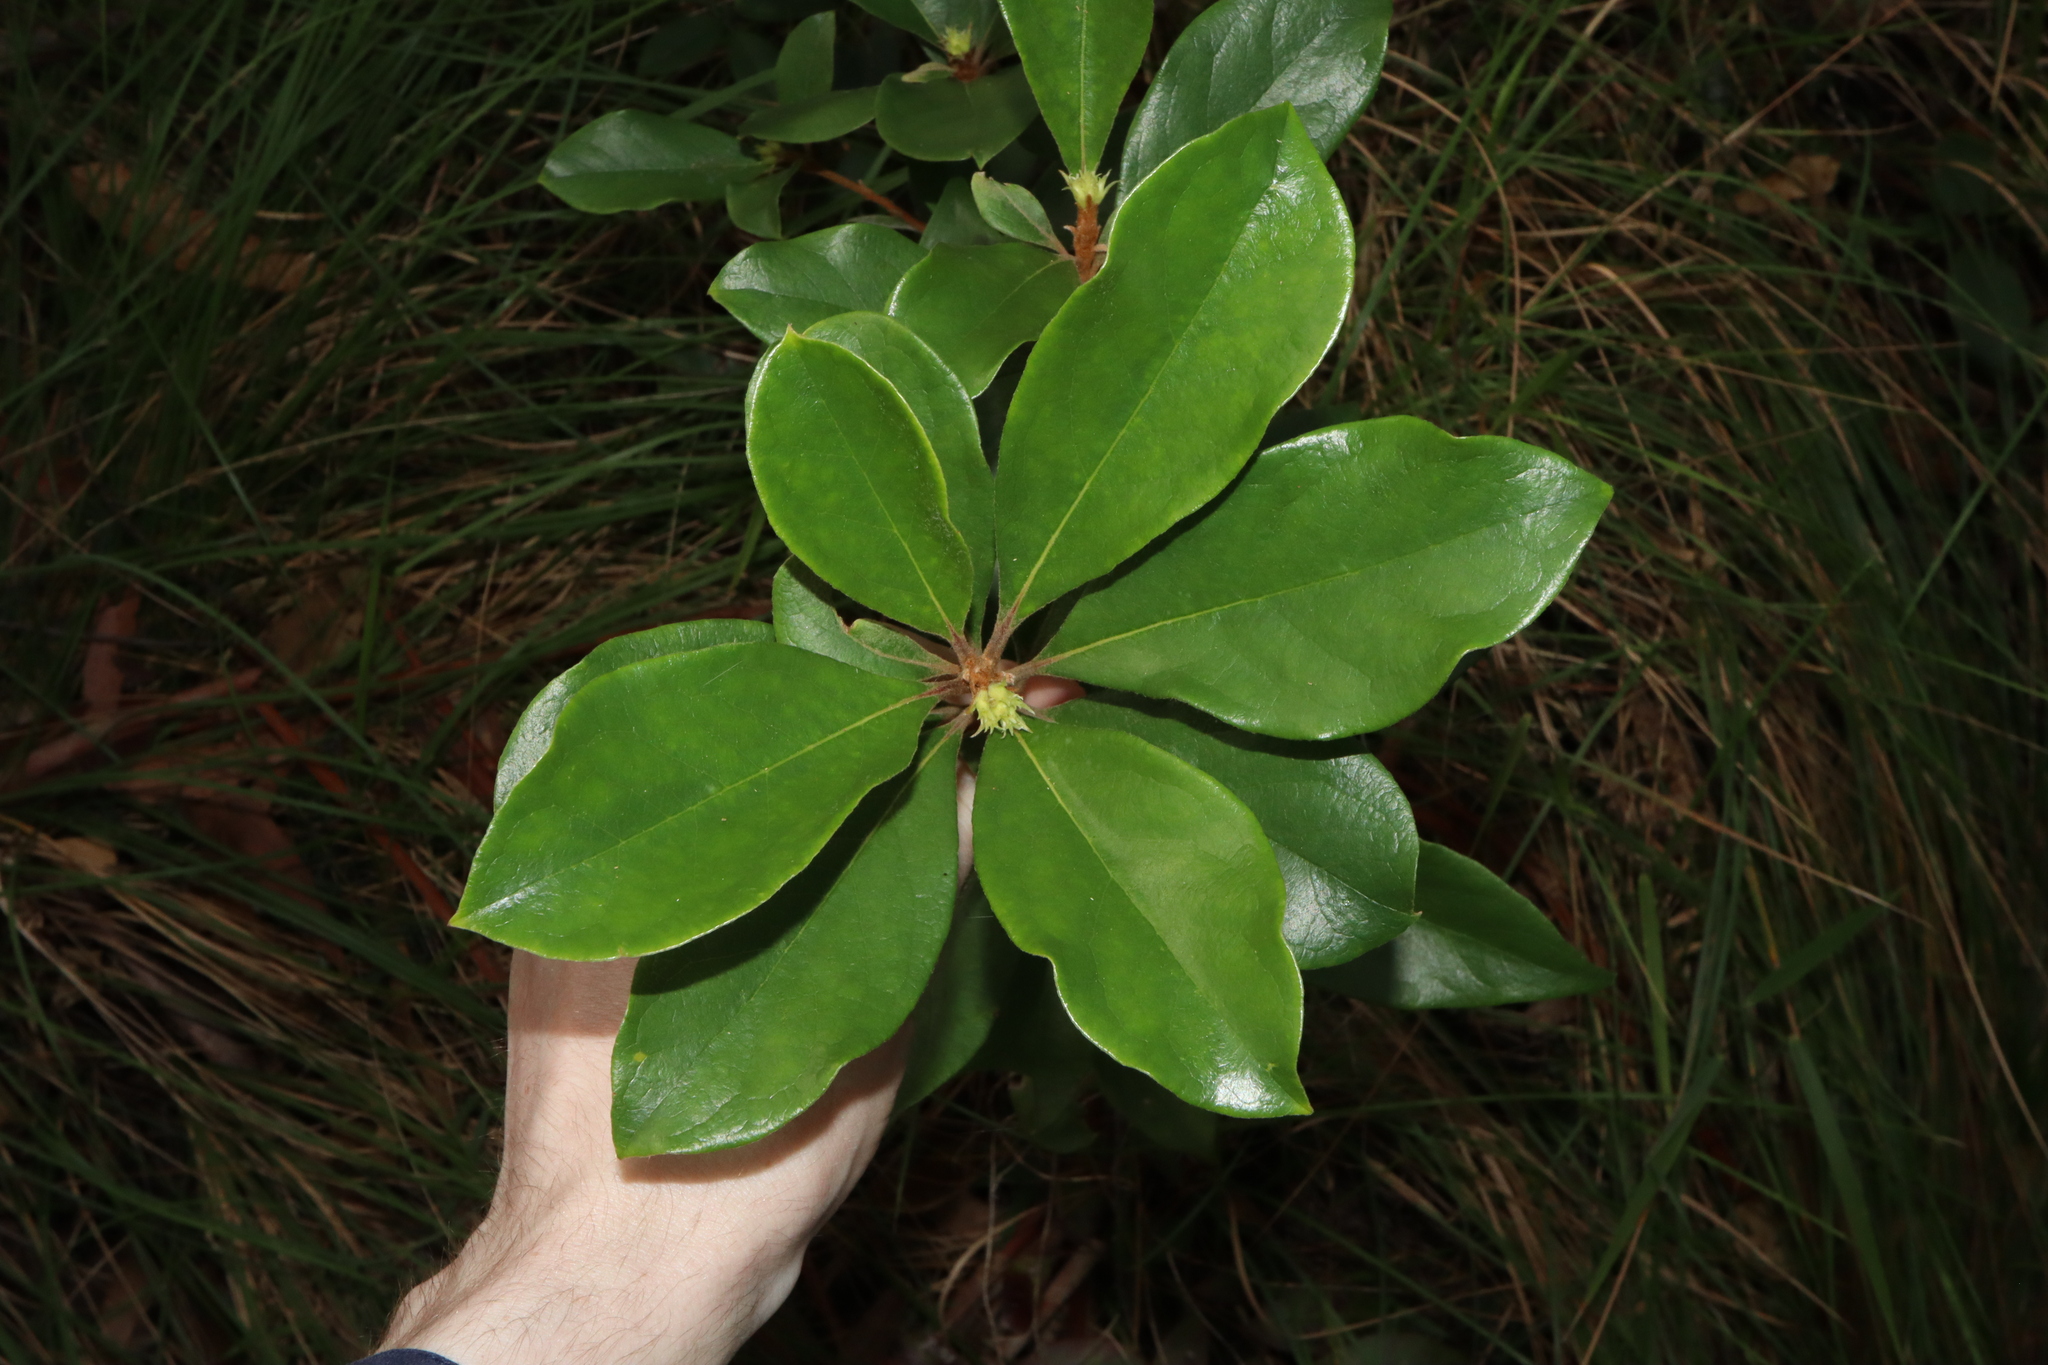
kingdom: Plantae
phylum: Tracheophyta
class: Magnoliopsida
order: Apiales
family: Pittosporaceae
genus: Pittosporum
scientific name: Pittosporum revolutum
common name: Brisbane-laurel
